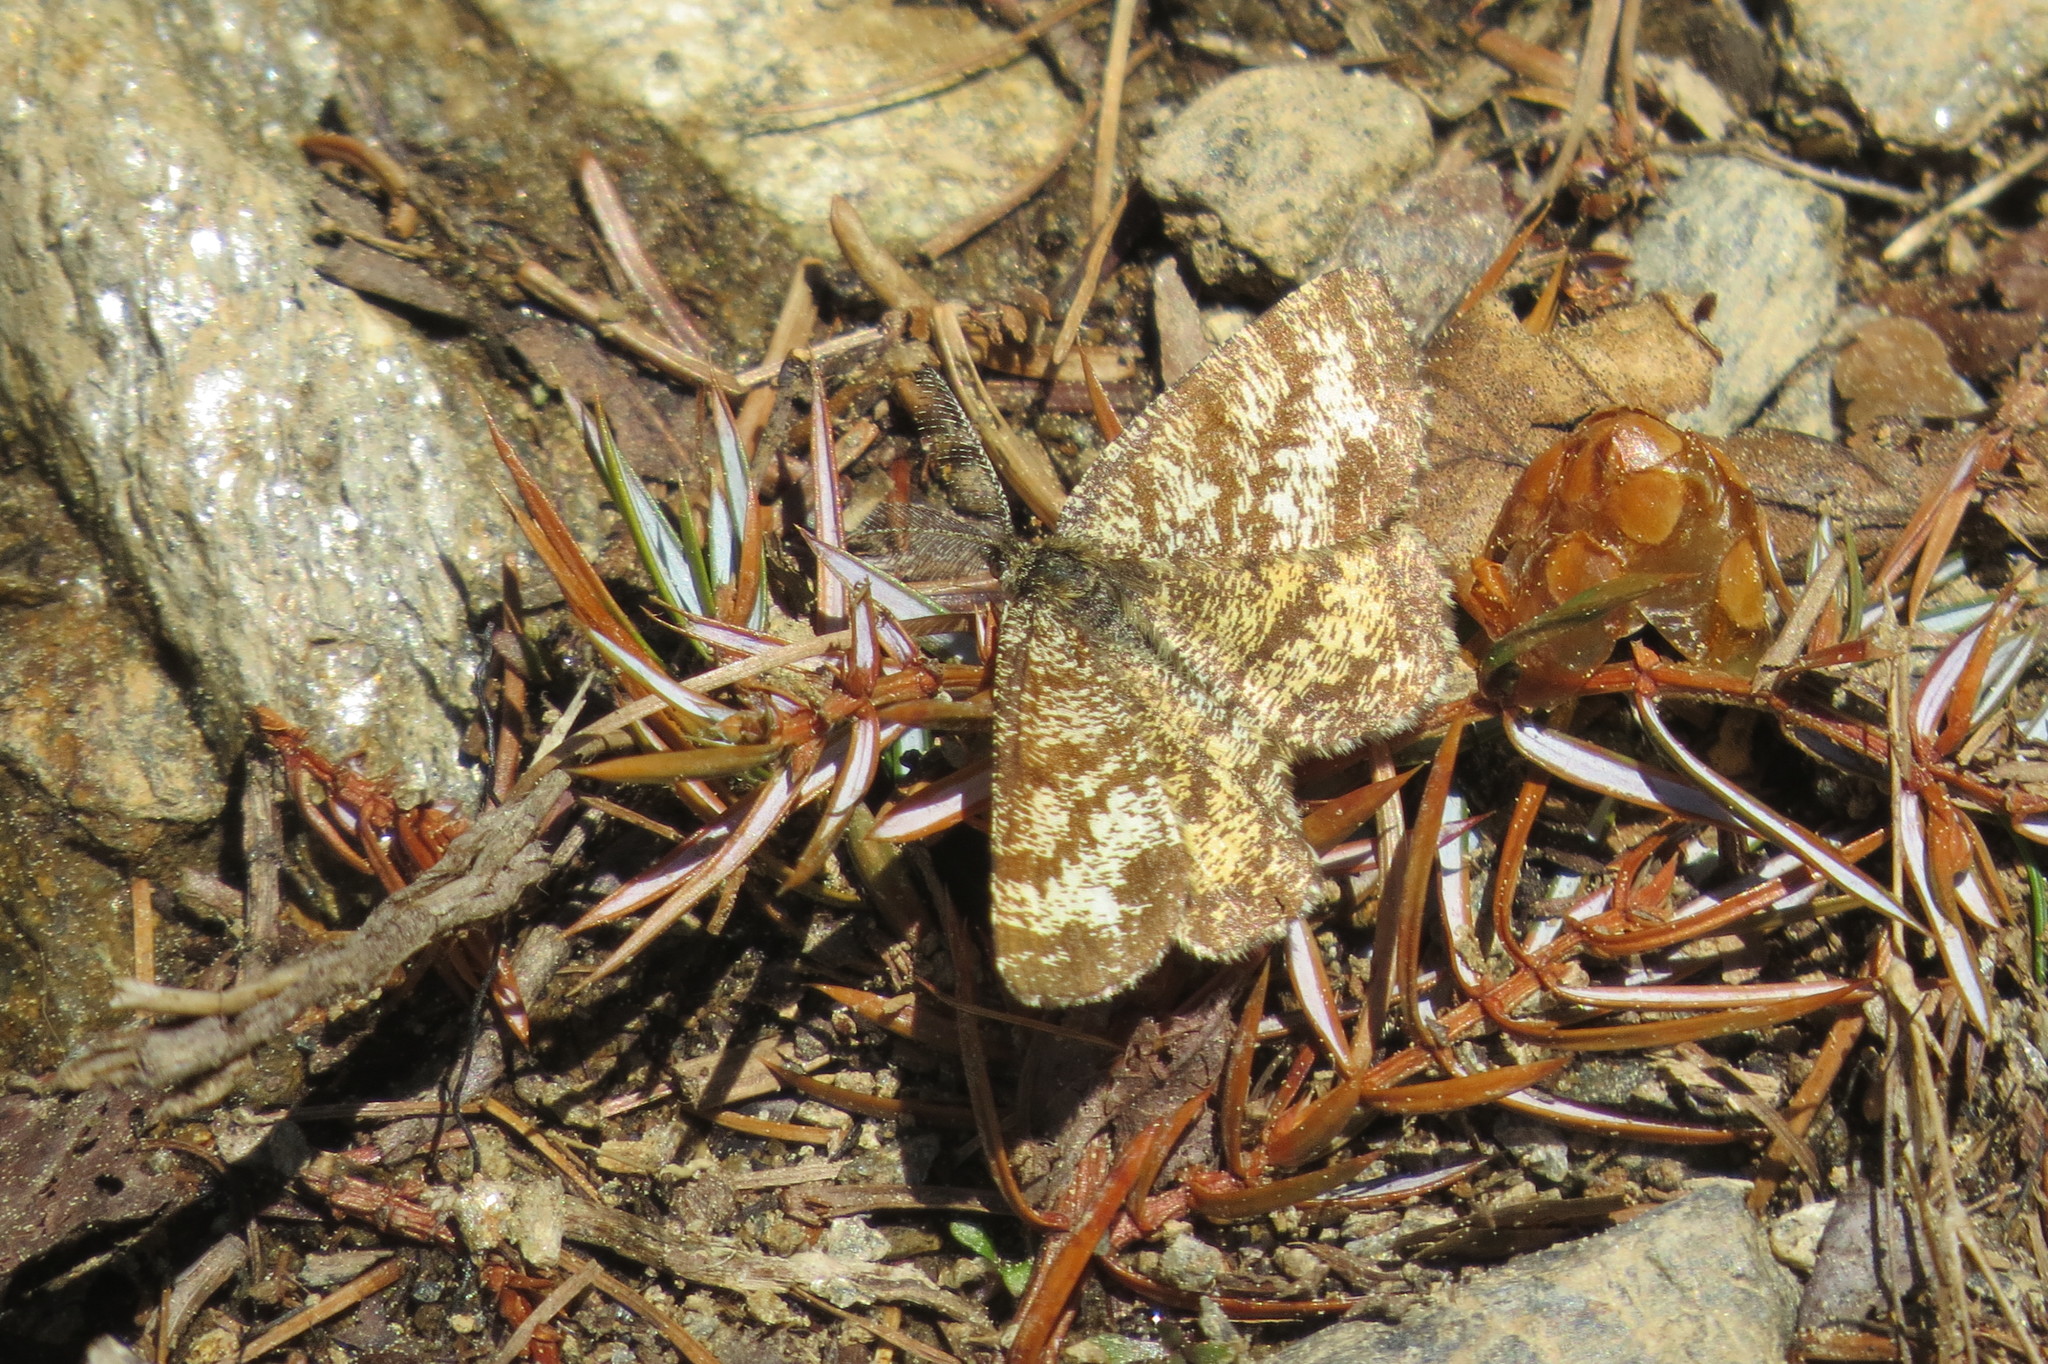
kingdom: Animalia
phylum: Arthropoda
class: Insecta
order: Lepidoptera
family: Geometridae
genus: Ematurga
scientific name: Ematurga atomaria
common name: Common heath
